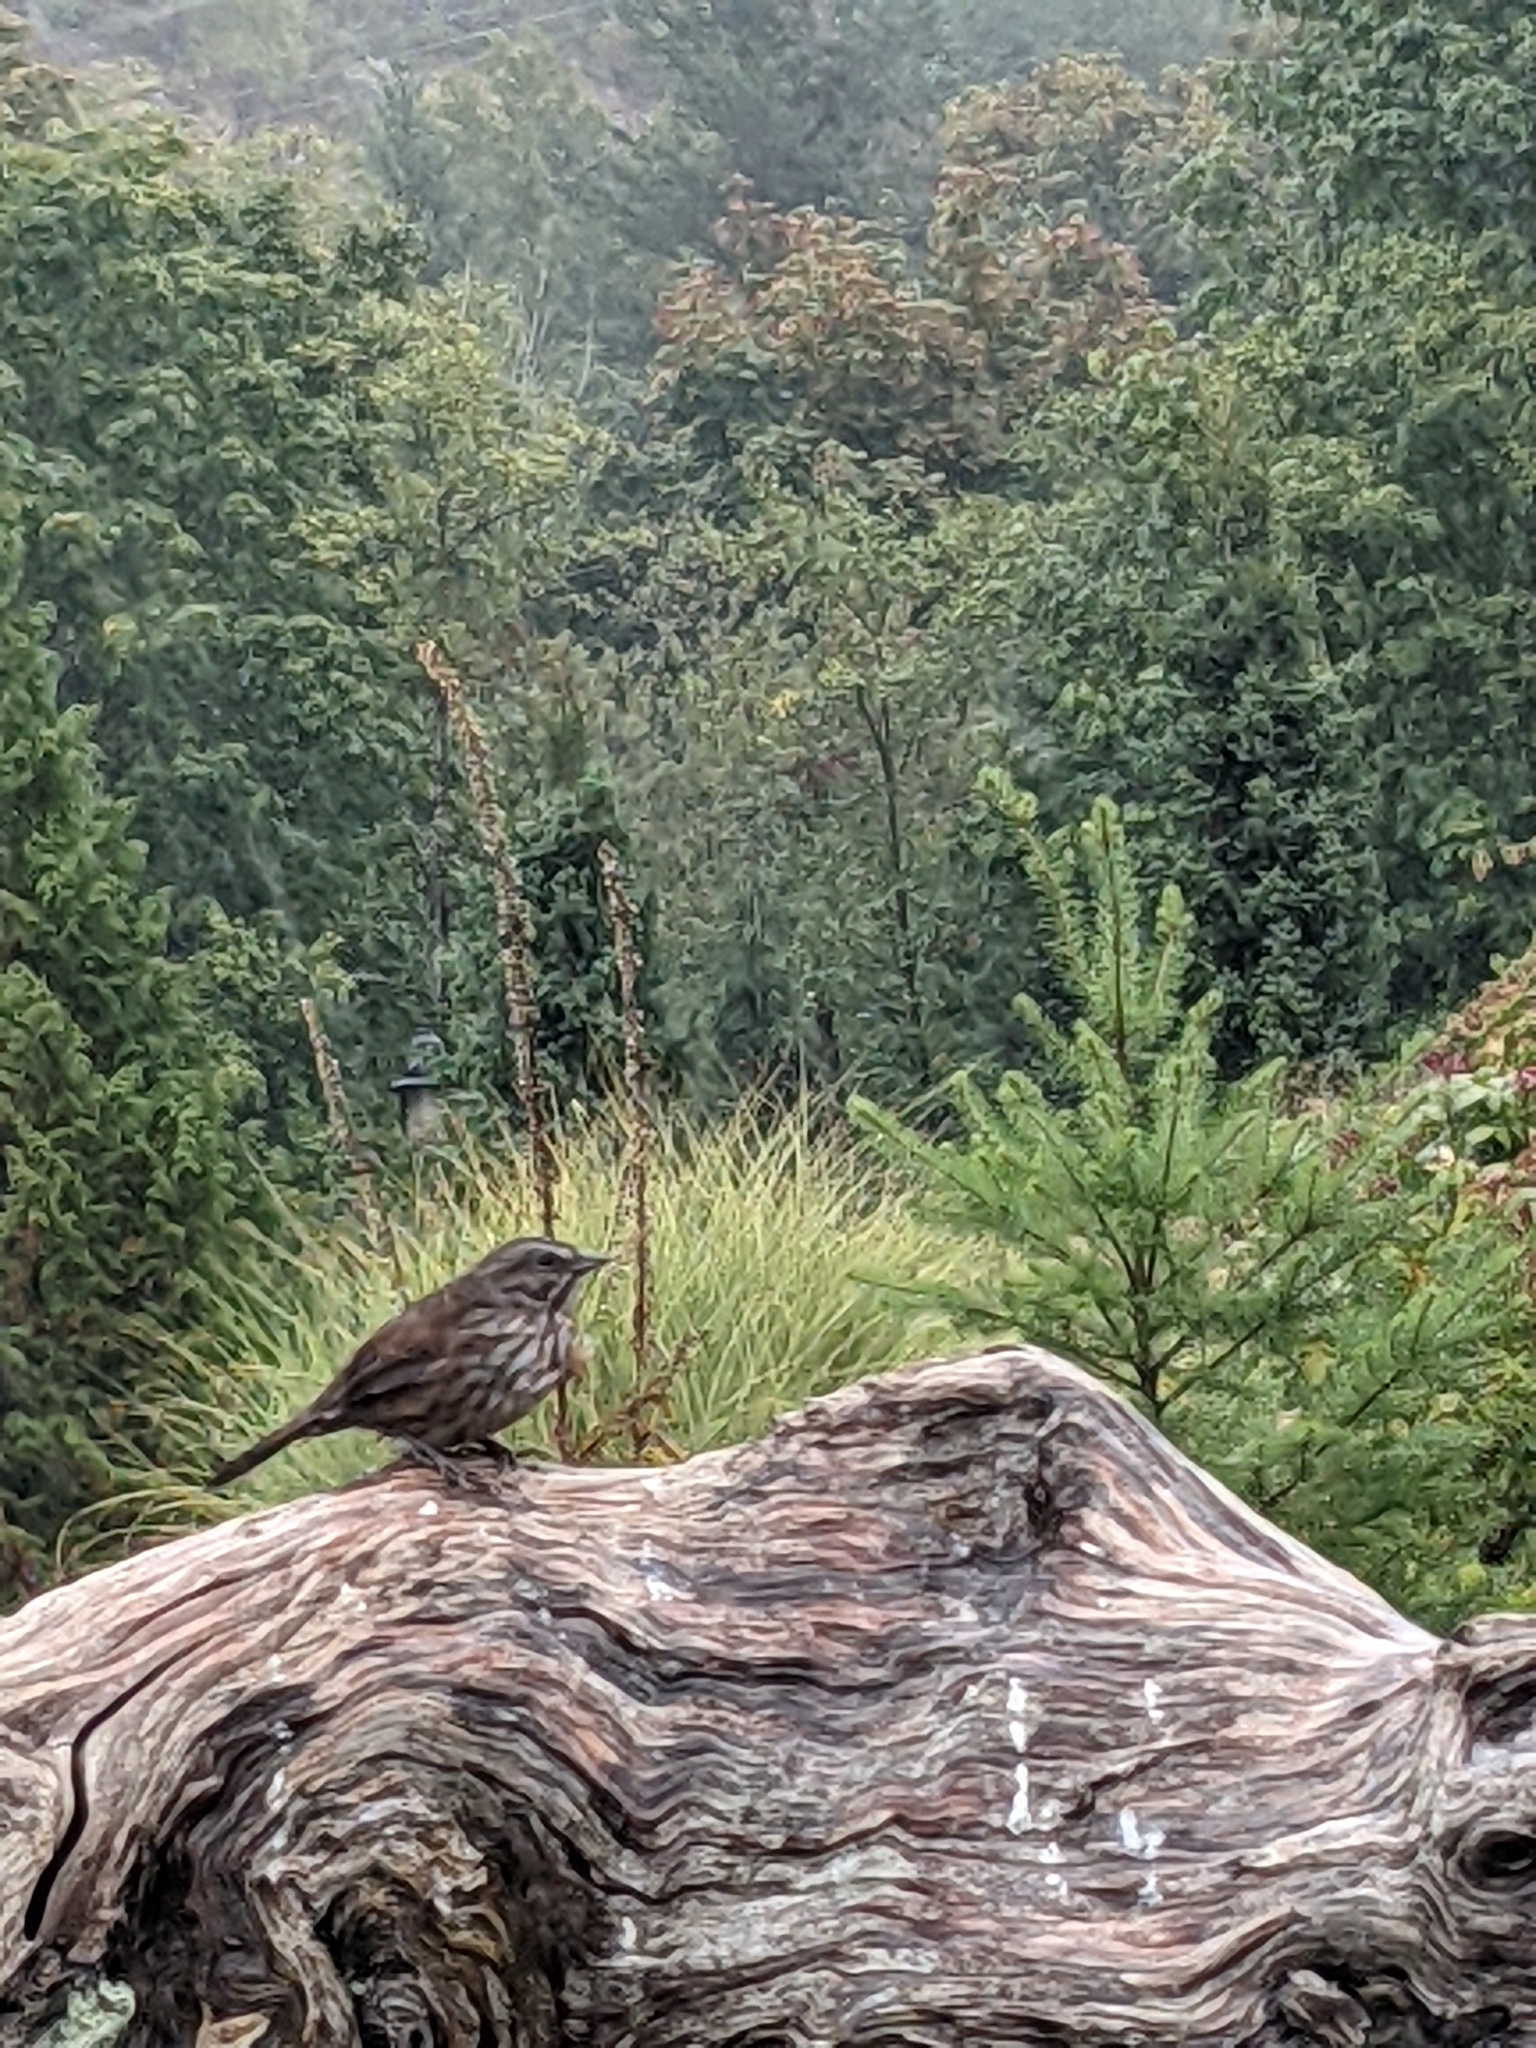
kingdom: Animalia
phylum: Chordata
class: Aves
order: Passeriformes
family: Passerellidae
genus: Melospiza
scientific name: Melospiza melodia
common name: Song sparrow
